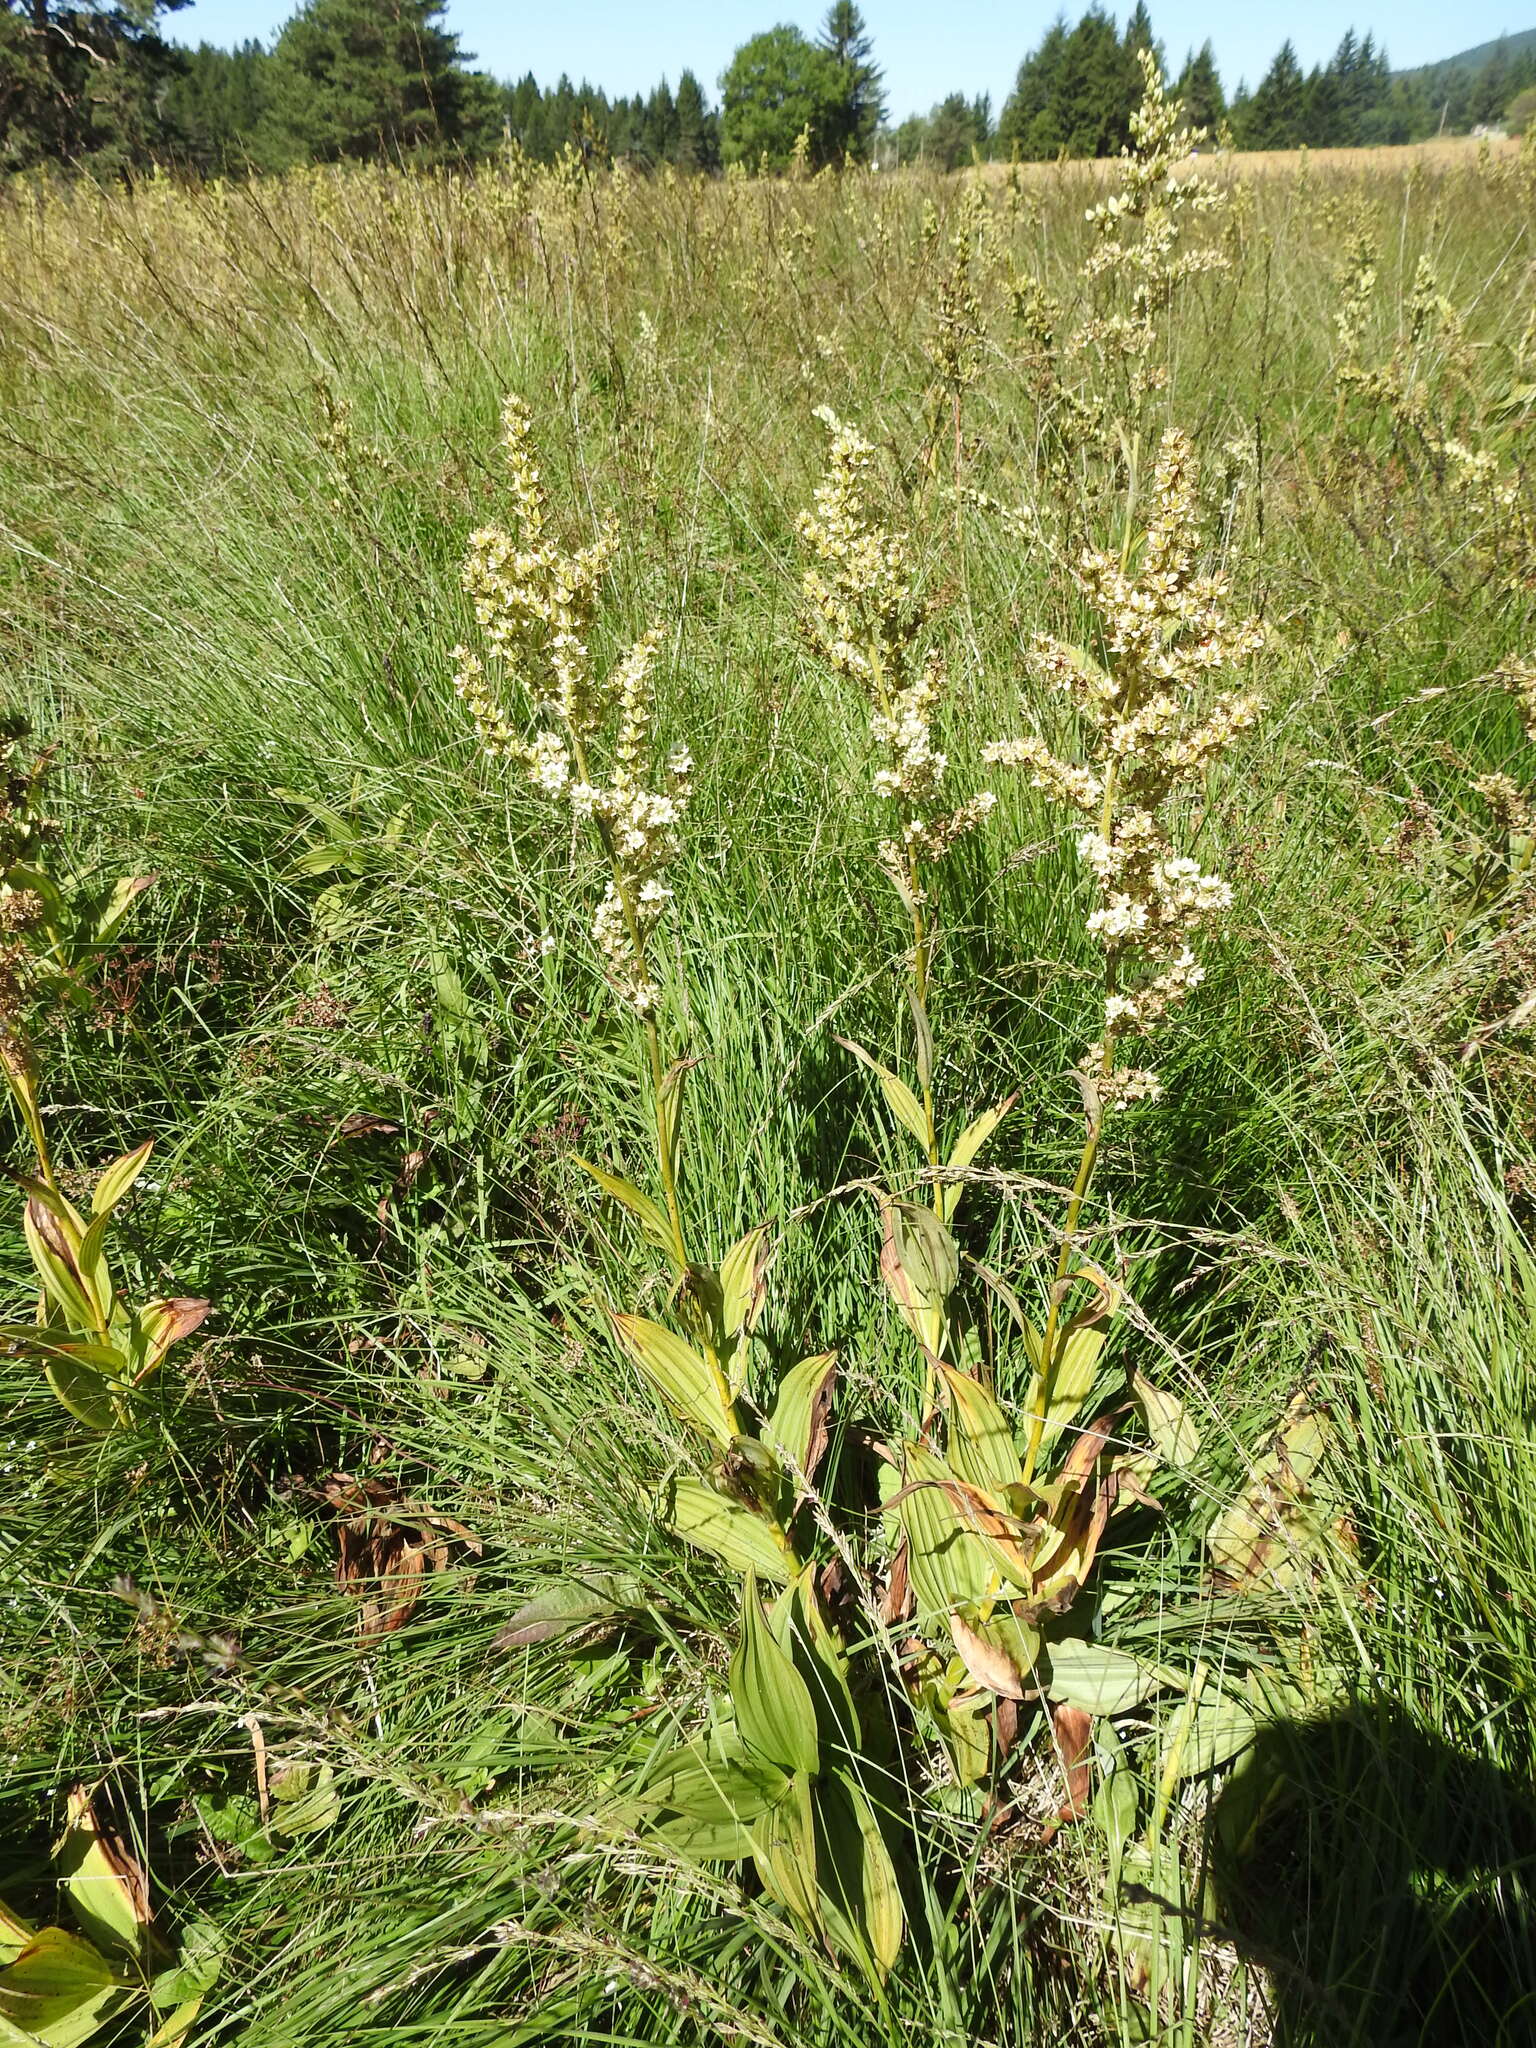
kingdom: Plantae
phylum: Tracheophyta
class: Liliopsida
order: Liliales
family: Melanthiaceae
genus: Veratrum
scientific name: Veratrum album
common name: White veratrum
